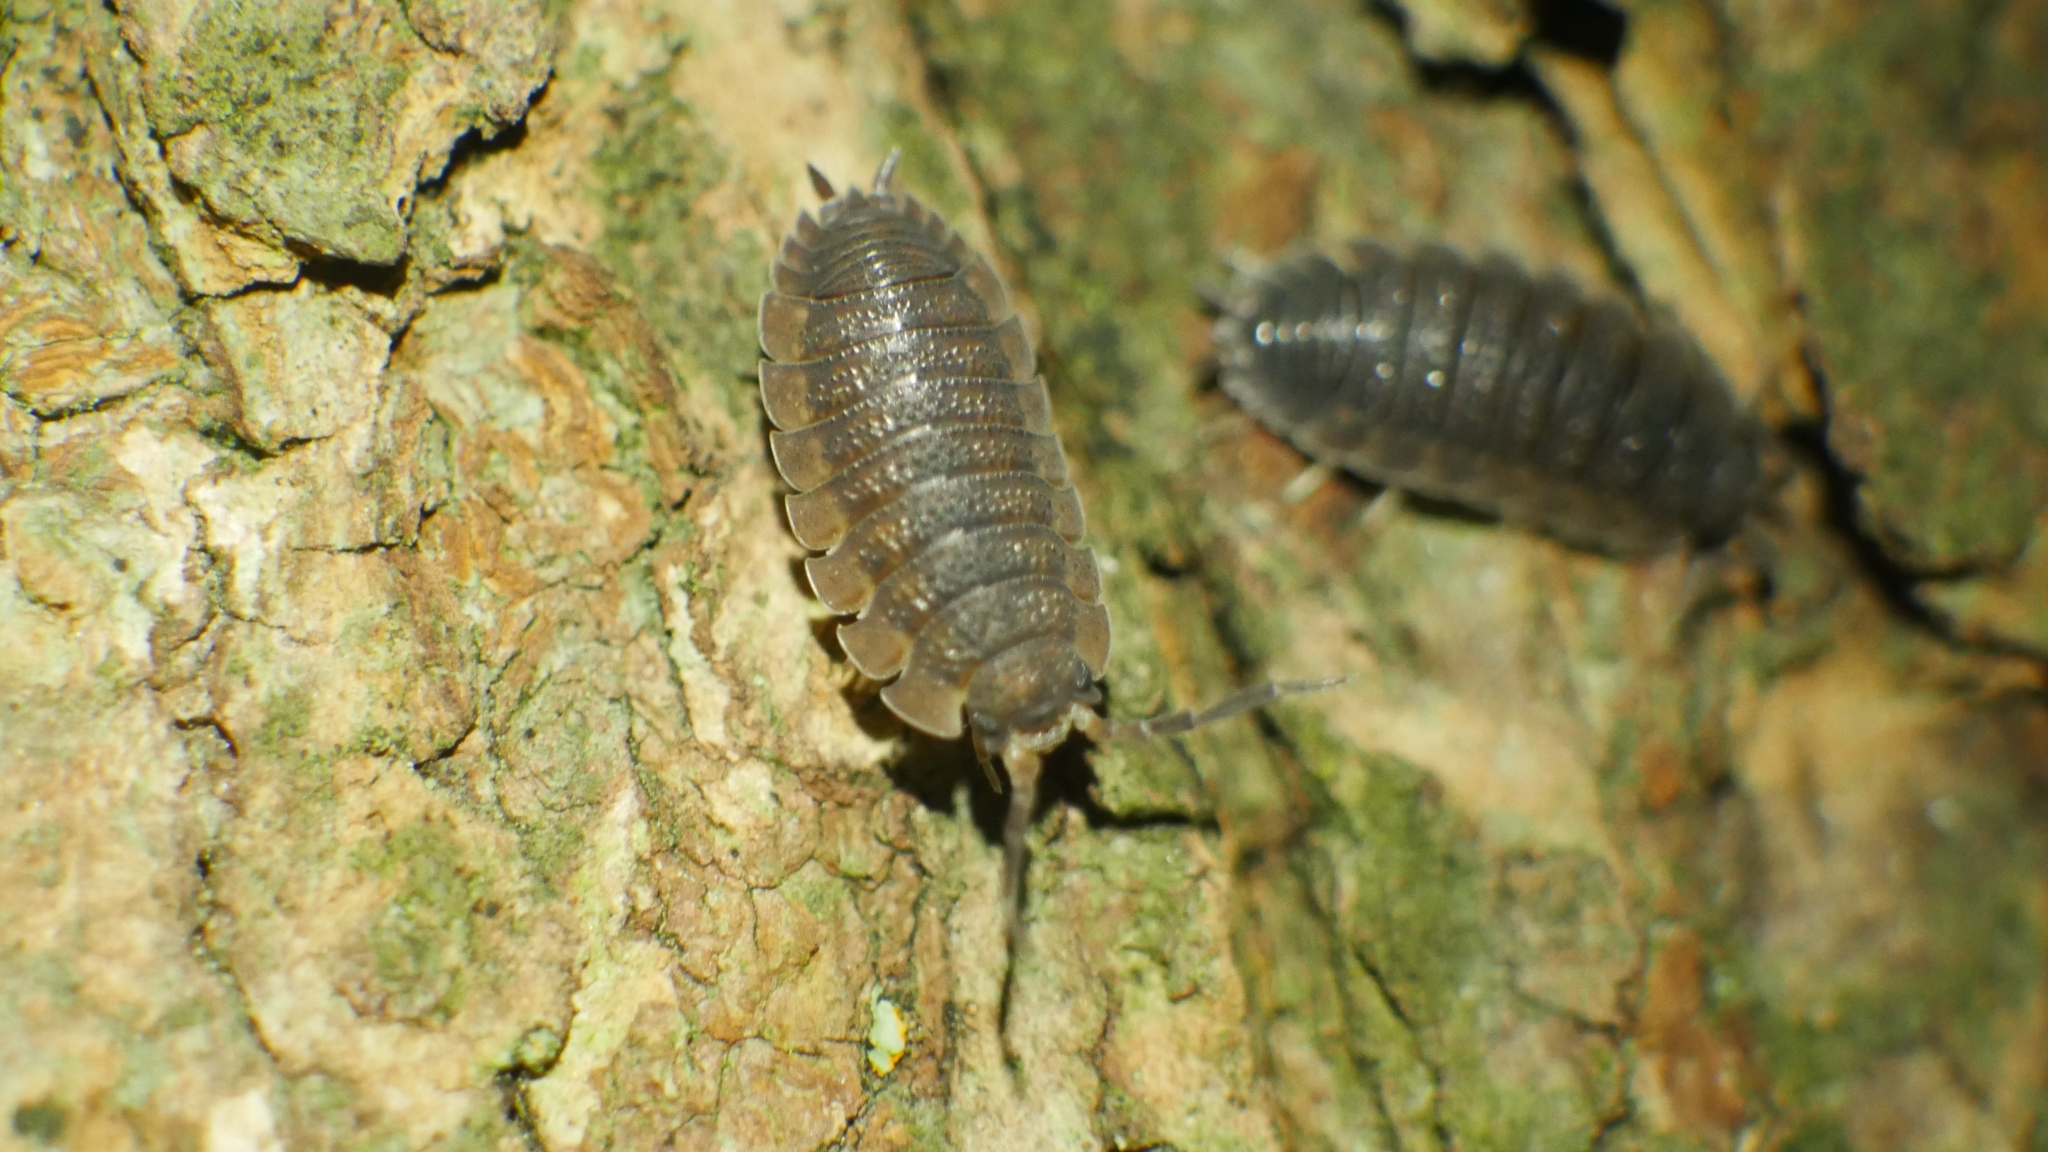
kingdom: Animalia
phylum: Arthropoda
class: Malacostraca
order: Isopoda
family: Porcellionidae
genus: Porcellio
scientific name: Porcellio scaber
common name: Common rough woodlouse
